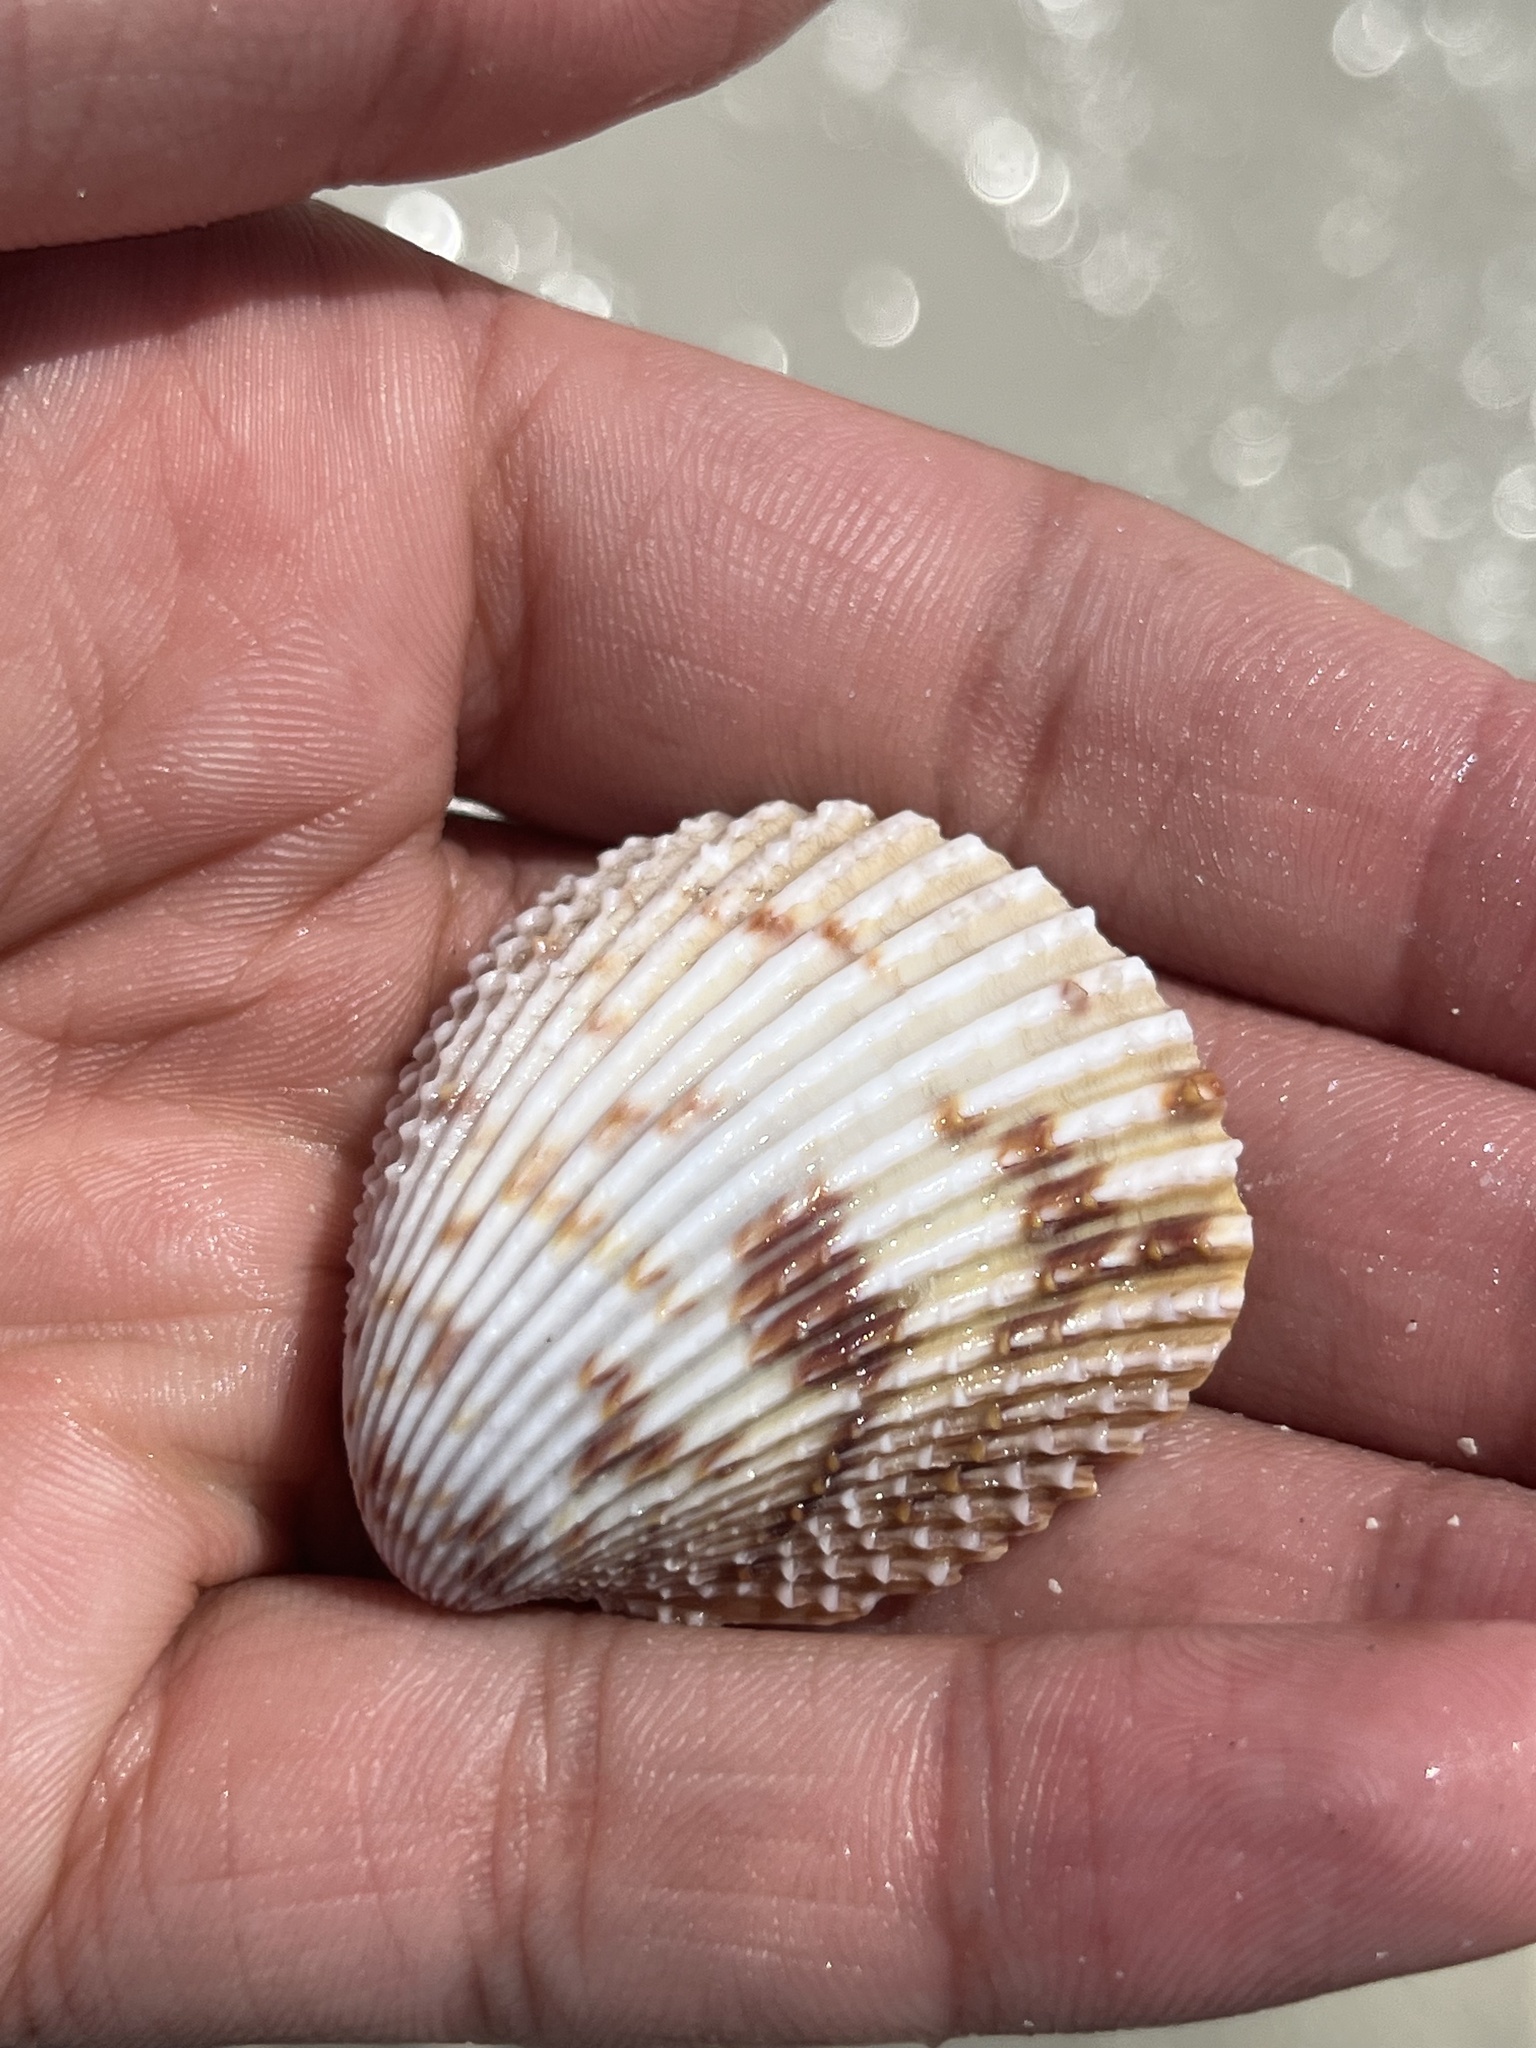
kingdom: Animalia
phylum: Mollusca
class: Bivalvia
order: Cardiida
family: Cardiidae
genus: Trachycardium
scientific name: Trachycardium egmontianum
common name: Florida pricklycockle
